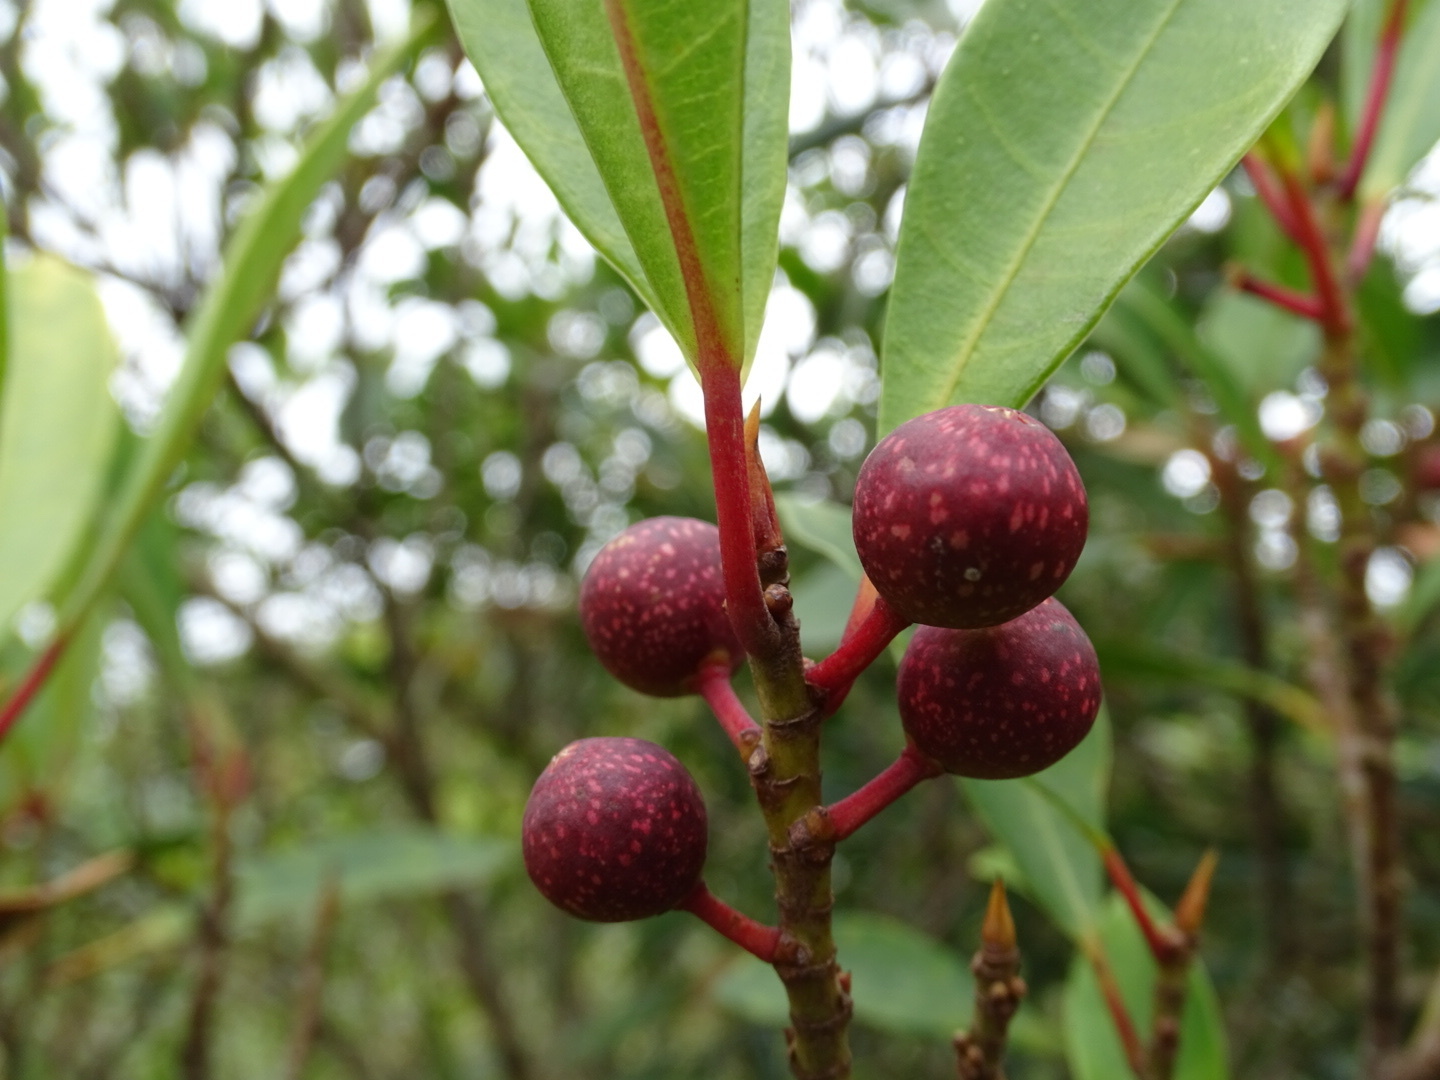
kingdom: Plantae
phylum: Tracheophyta
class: Magnoliopsida
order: Rosales
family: Moraceae
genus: Ficus
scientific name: Ficus variolosa
